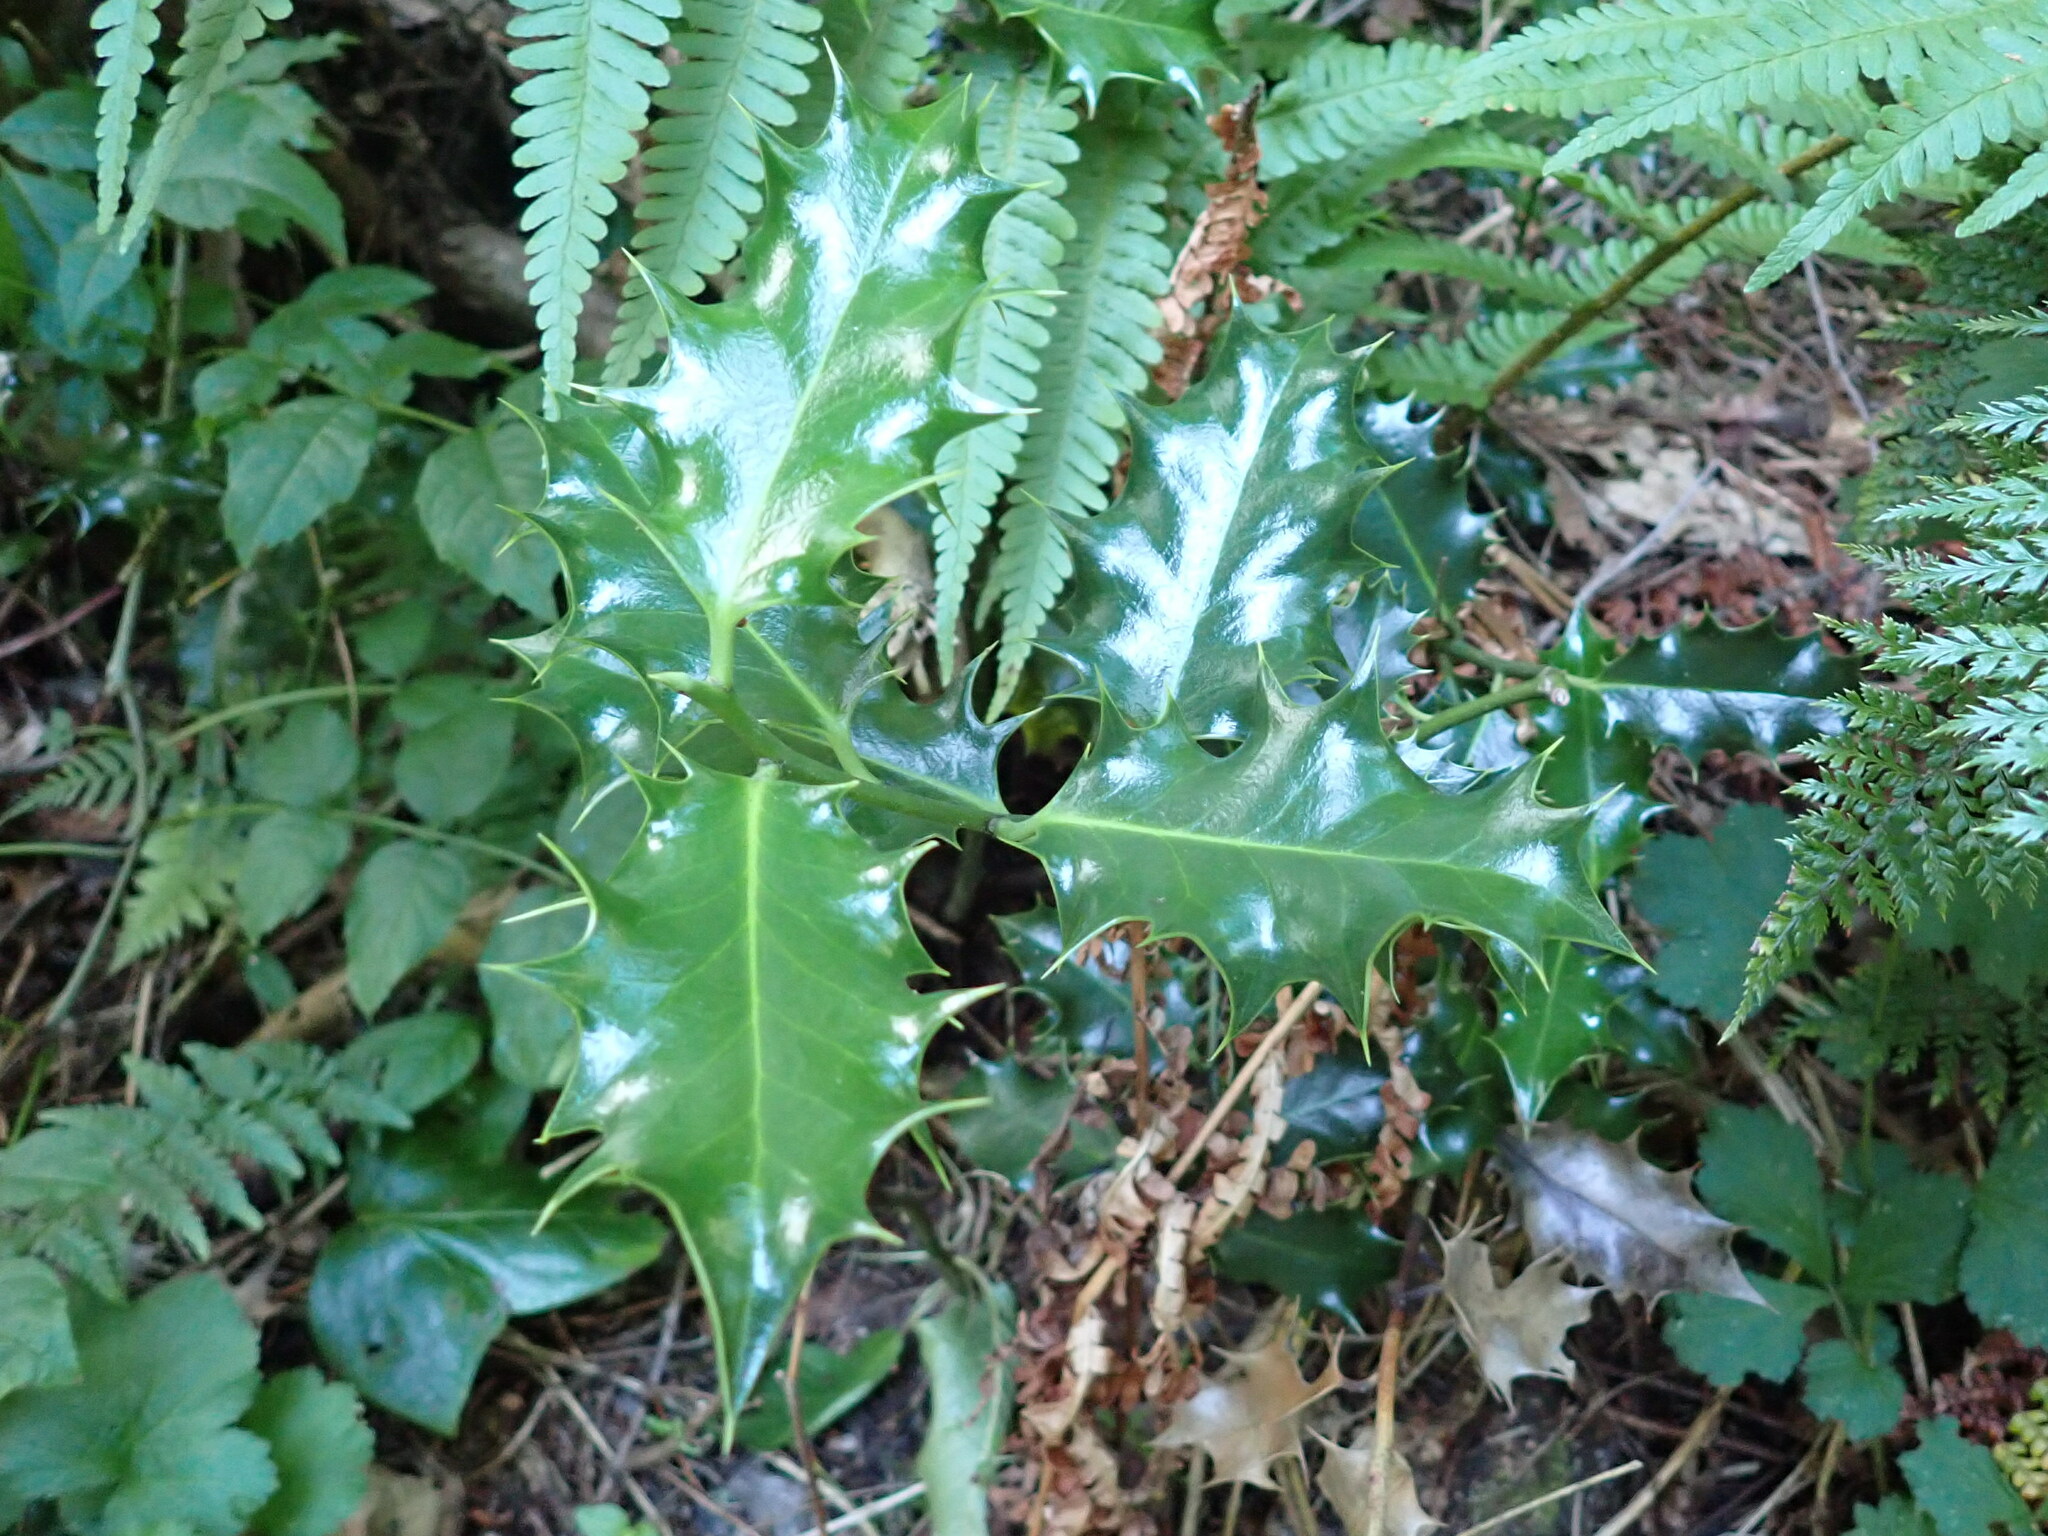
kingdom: Plantae
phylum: Tracheophyta
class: Magnoliopsida
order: Aquifoliales
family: Aquifoliaceae
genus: Ilex
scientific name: Ilex aquifolium
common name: English holly
